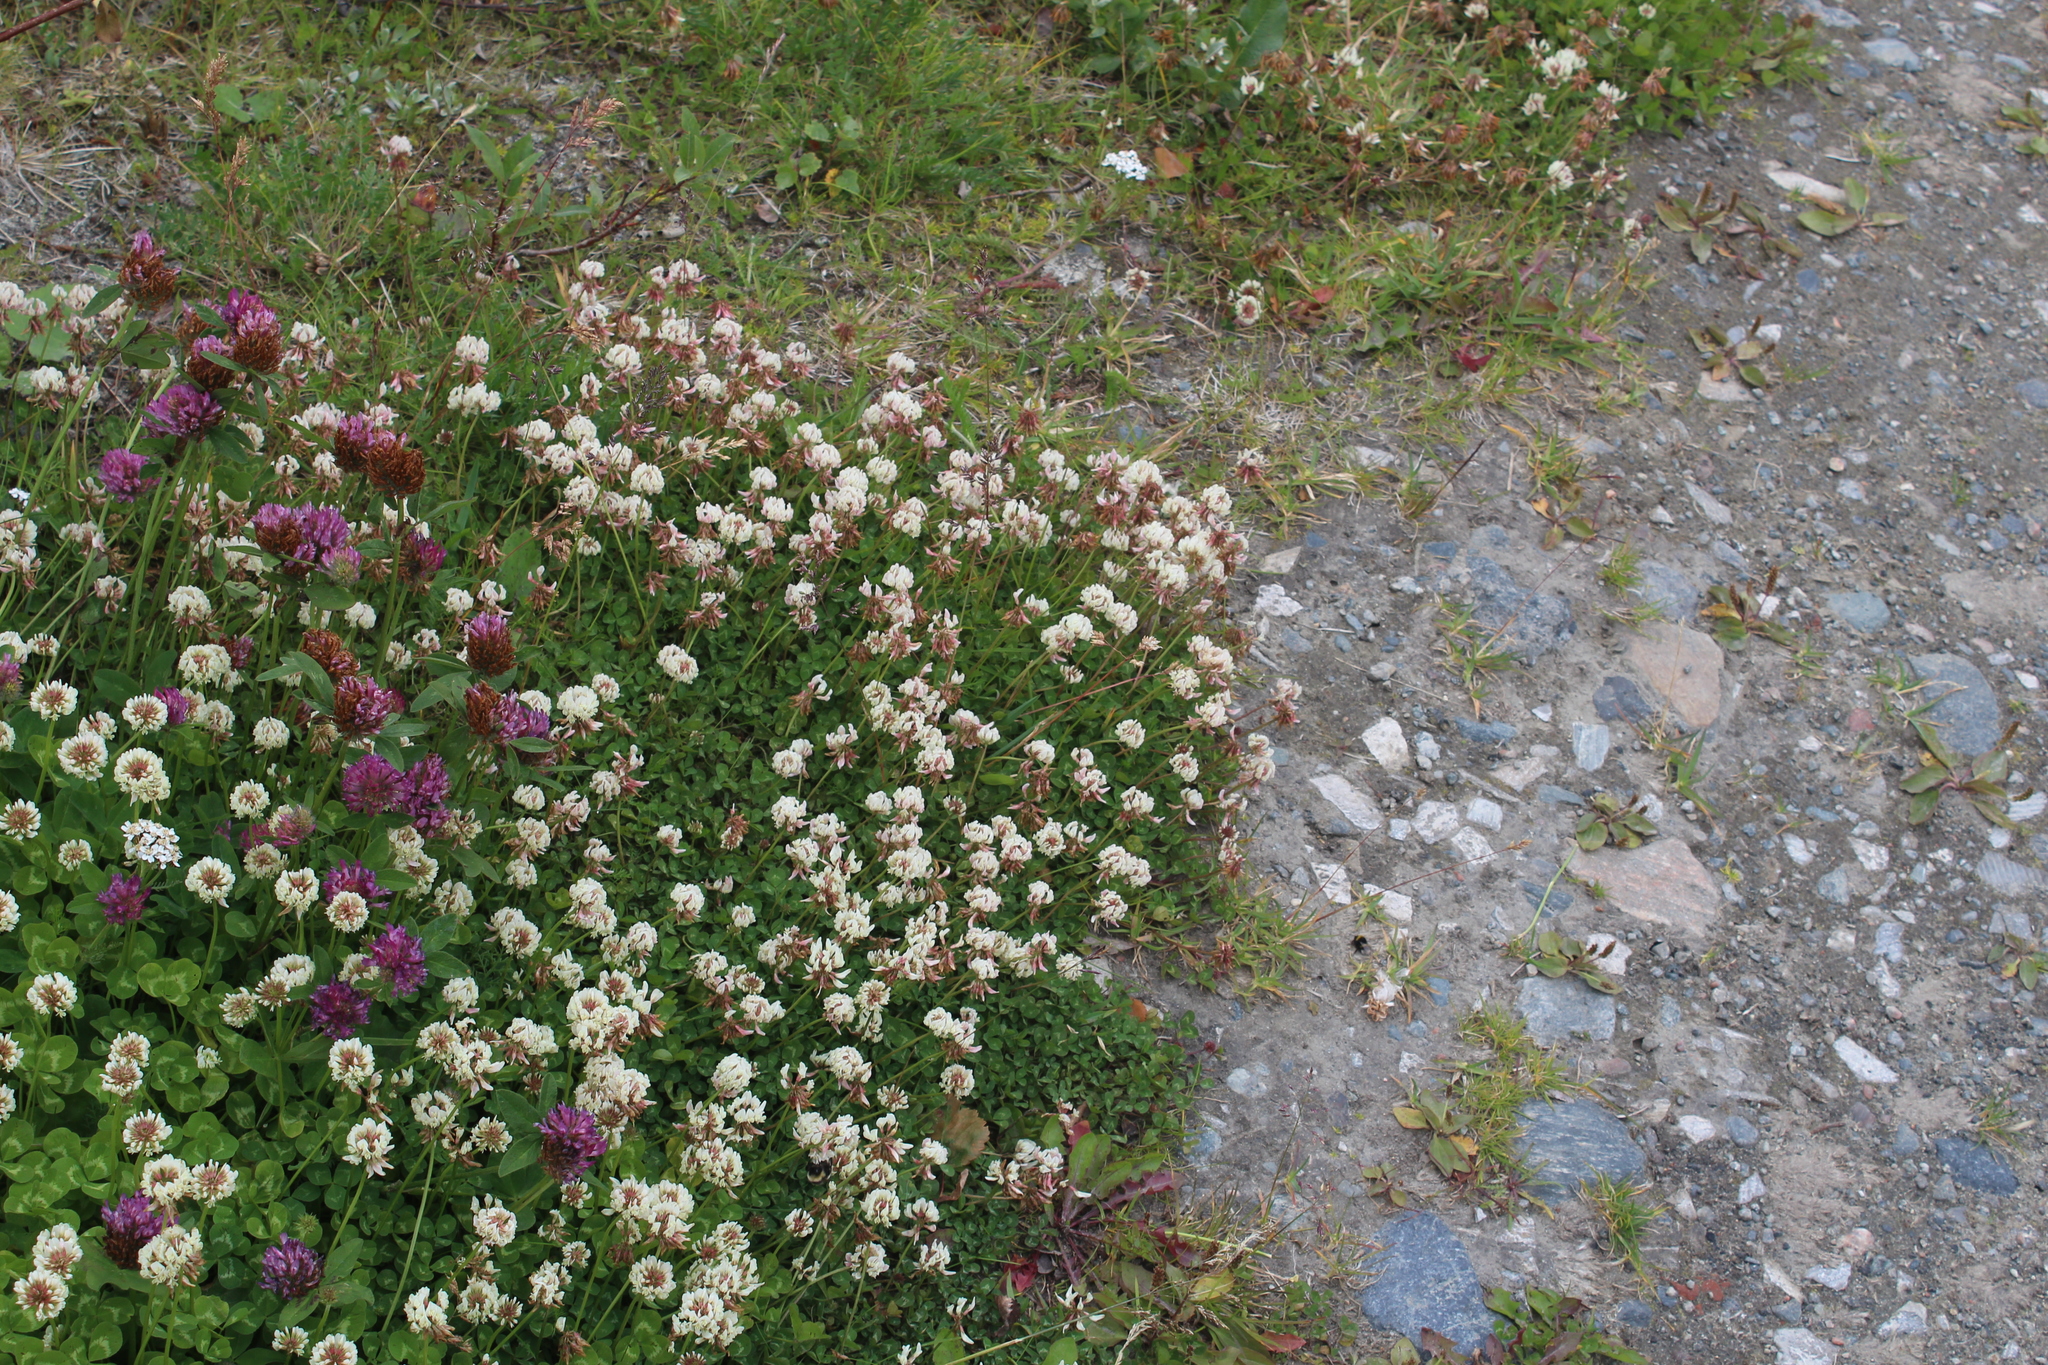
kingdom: Plantae
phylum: Tracheophyta
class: Magnoliopsida
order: Fabales
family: Fabaceae
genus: Trifolium
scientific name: Trifolium repens
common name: White clover
